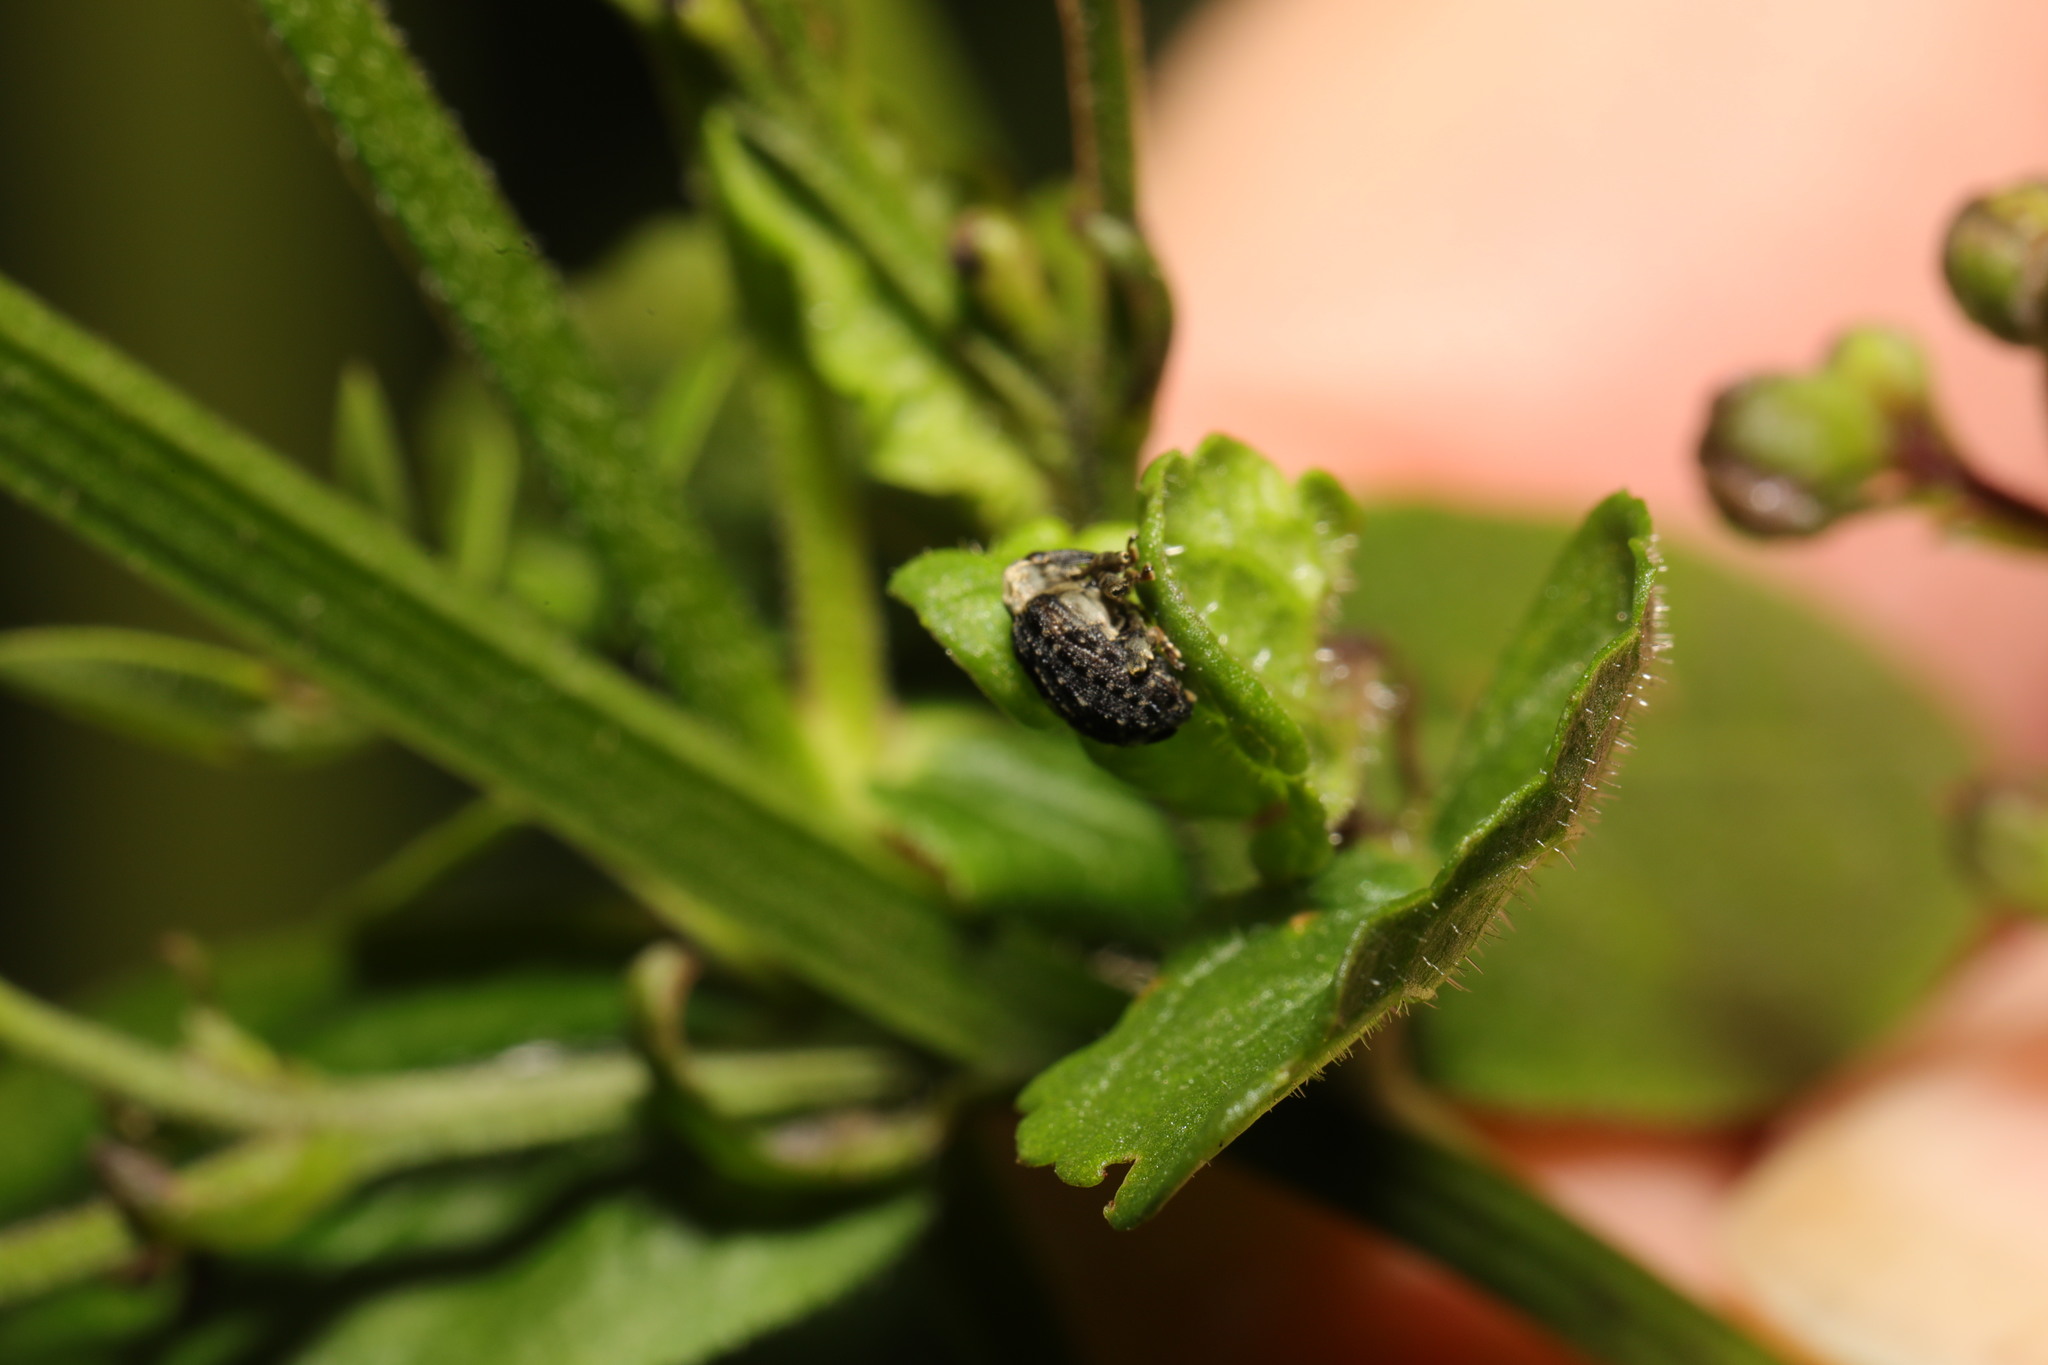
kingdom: Animalia
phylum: Arthropoda
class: Insecta
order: Coleoptera
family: Curculionidae
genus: Cionus
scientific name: Cionus scrophulariae
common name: Common figwort weevil
